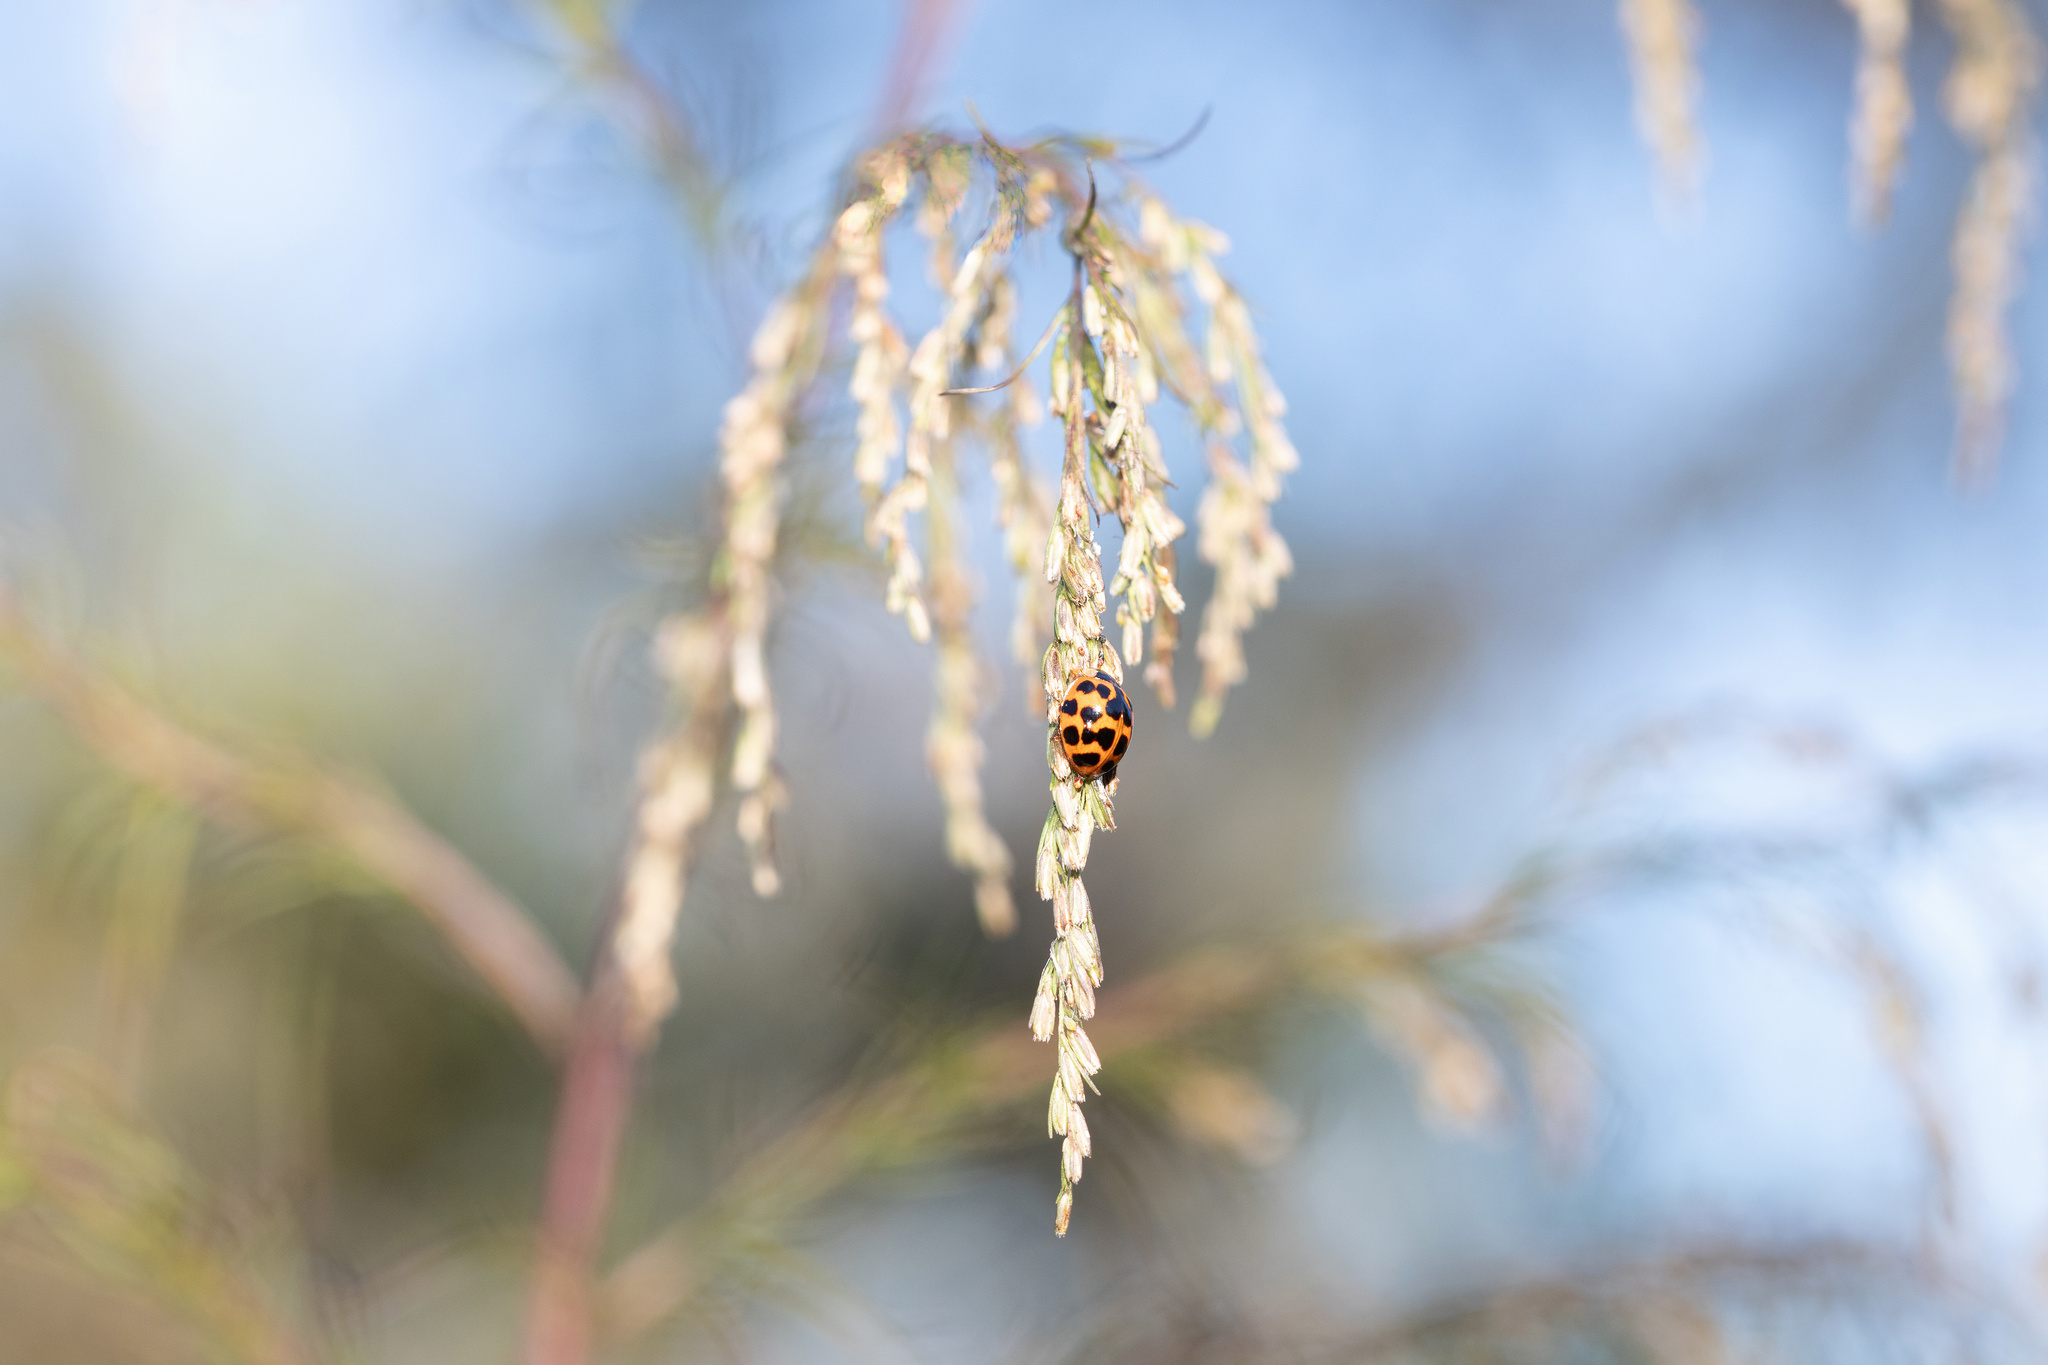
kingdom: Animalia
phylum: Arthropoda
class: Insecta
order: Coleoptera
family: Coccinellidae
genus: Harmonia
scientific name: Harmonia axyridis
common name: Harlequin ladybird
